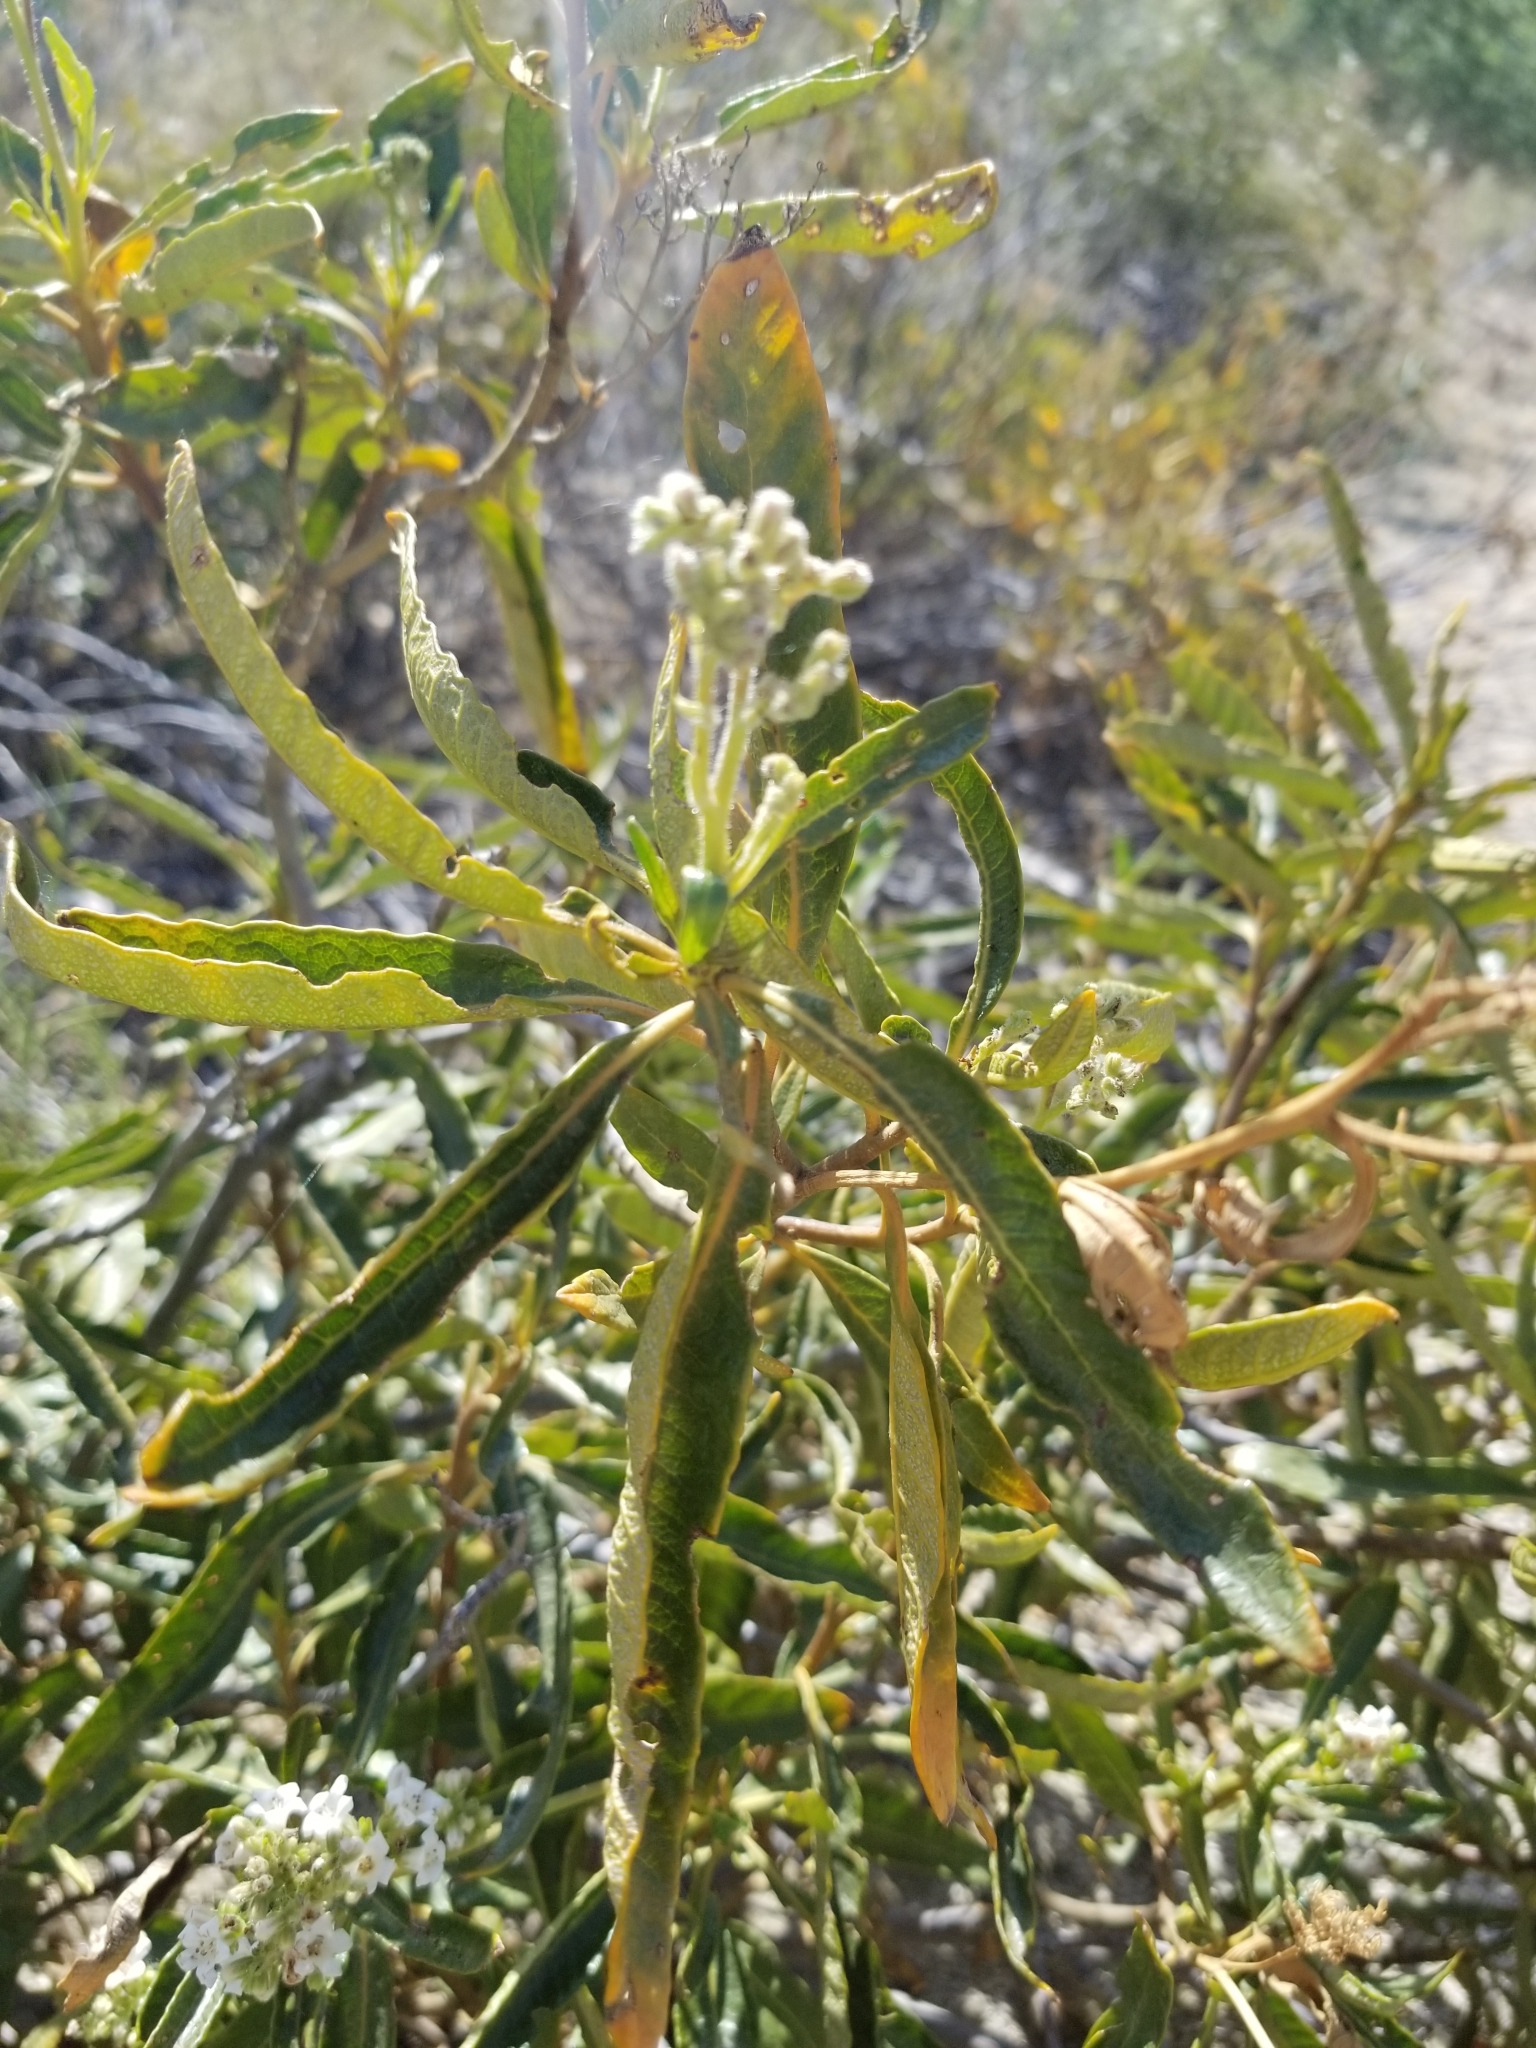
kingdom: Plantae
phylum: Tracheophyta
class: Magnoliopsida
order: Boraginales
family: Namaceae
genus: Eriodictyon
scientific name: Eriodictyon trichocalyx
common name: Hairy yerba-santa
